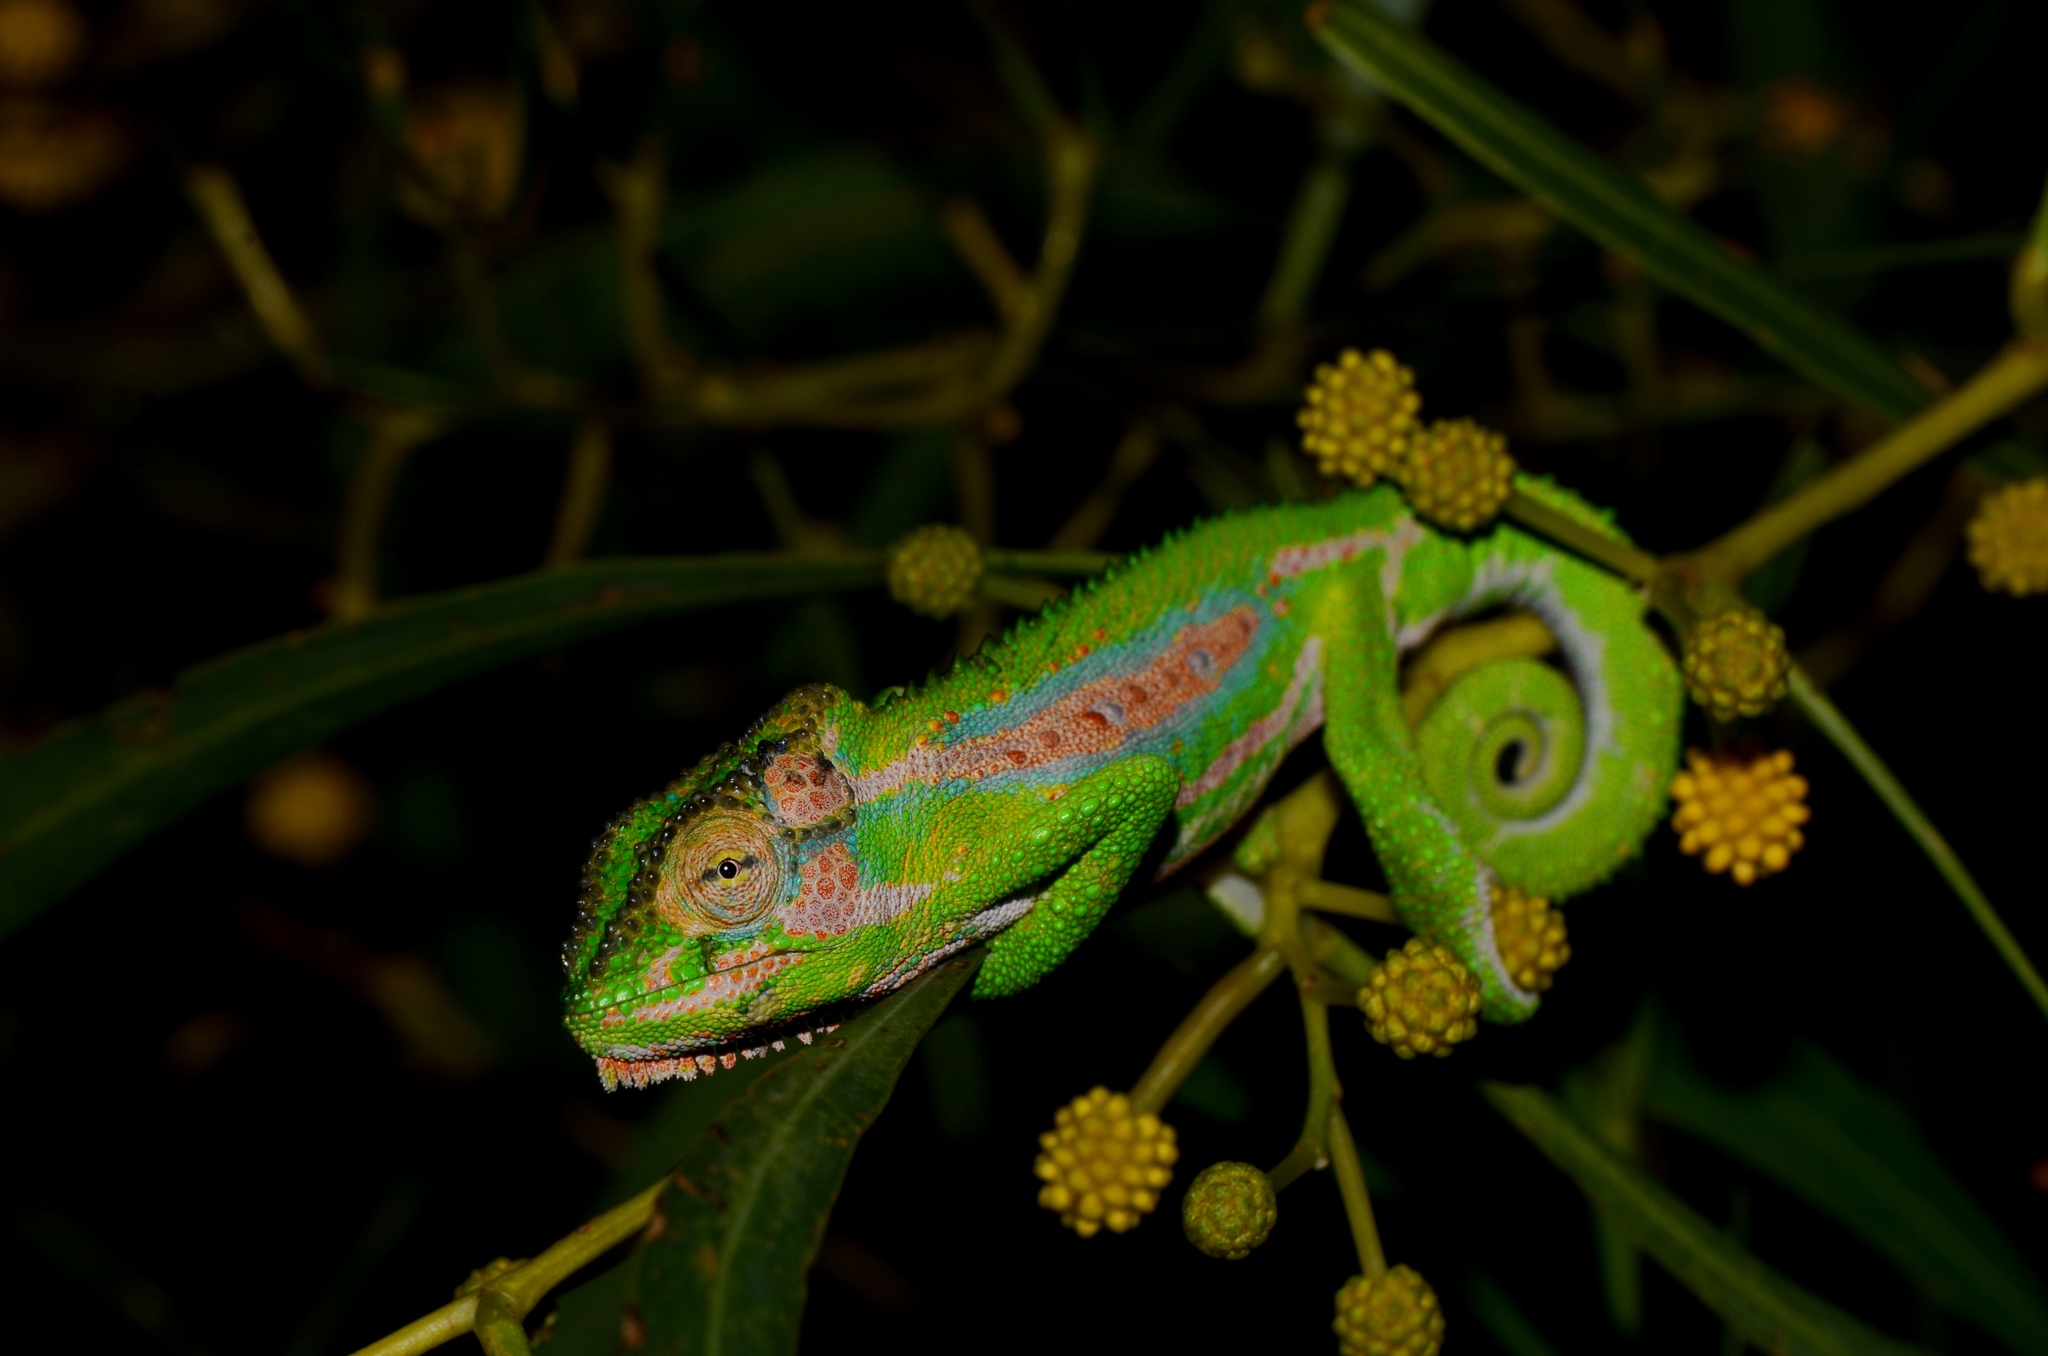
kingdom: Animalia
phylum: Chordata
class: Squamata
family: Chamaeleonidae
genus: Bradypodion
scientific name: Bradypodion pumilum
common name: Cape dwarf chameleon
